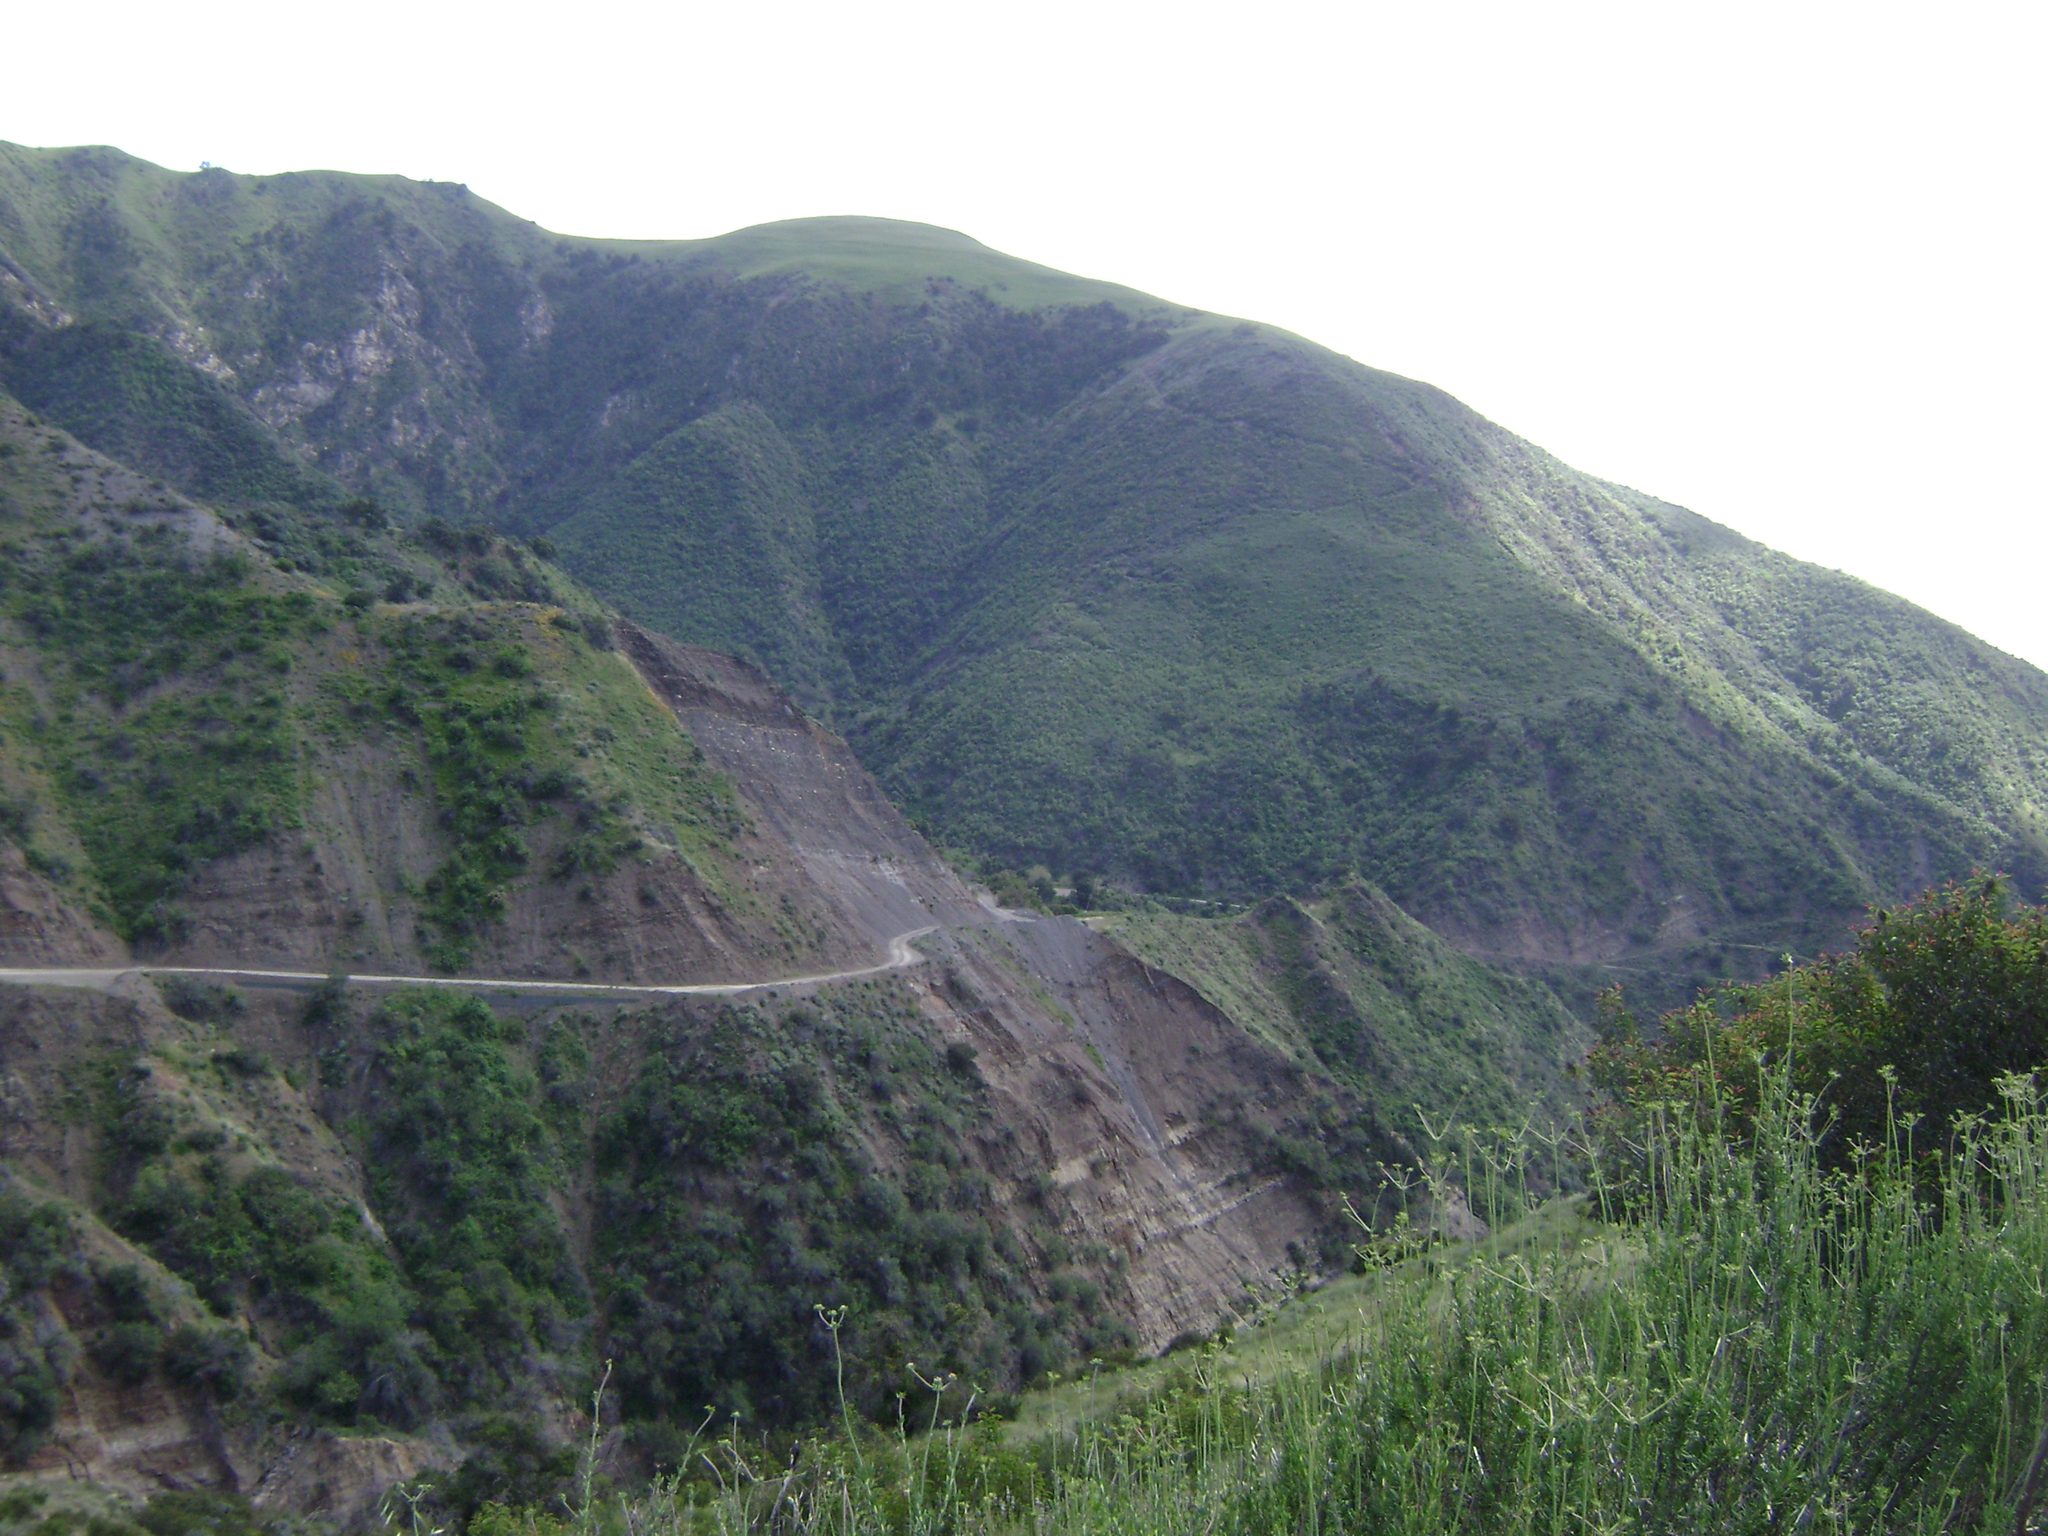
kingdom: Plantae
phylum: Tracheophyta
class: Magnoliopsida
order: Caryophyllales
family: Polygonaceae
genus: Eriogonum
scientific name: Eriogonum fasciculatum
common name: California wild buckwheat
